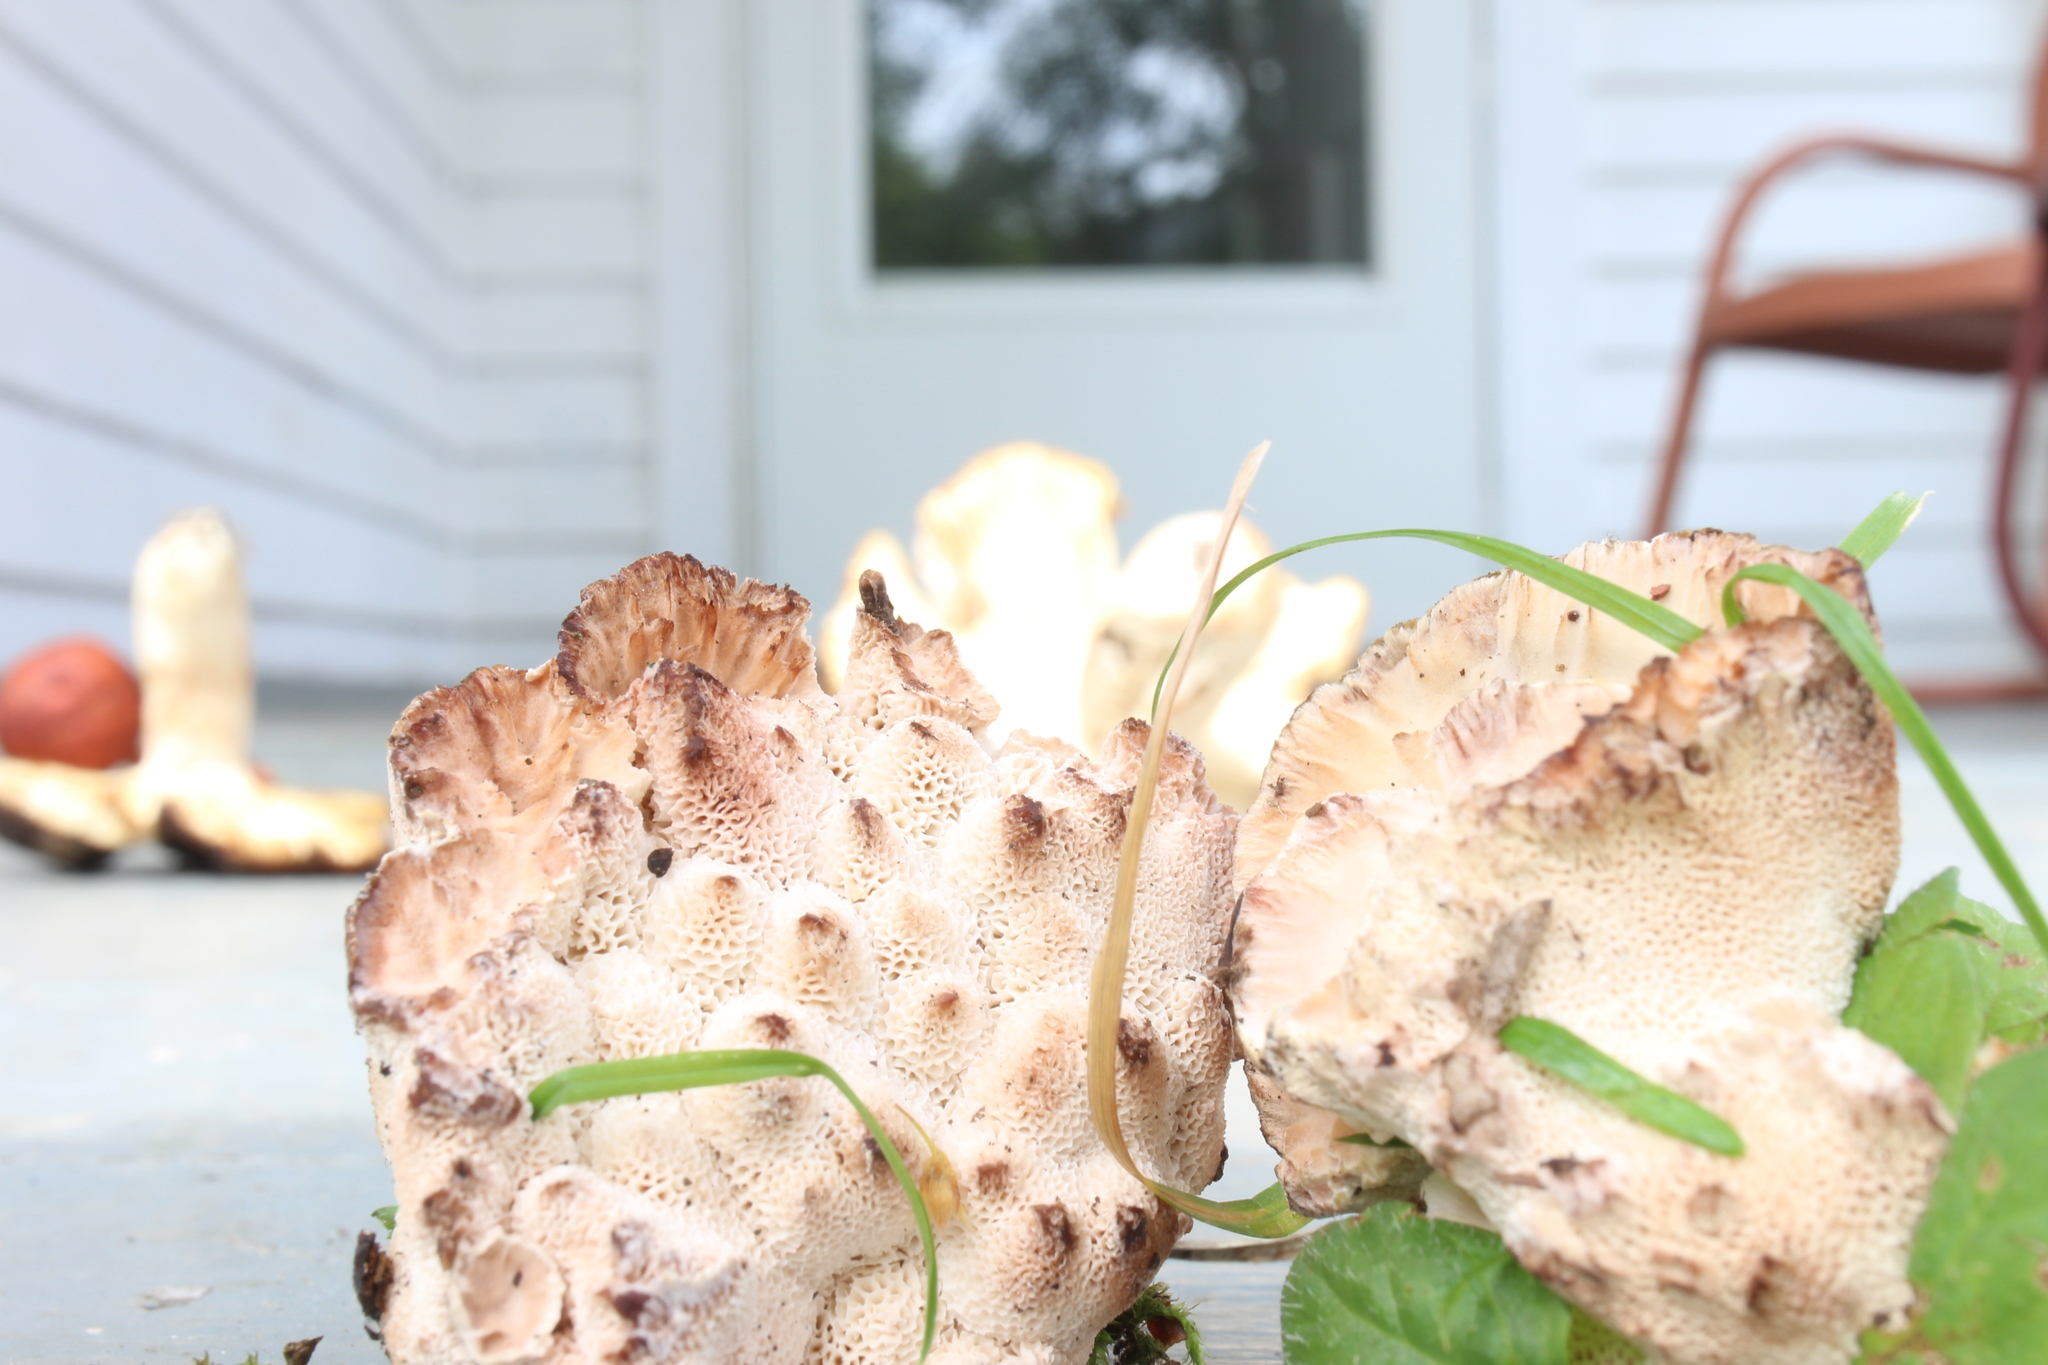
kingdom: Fungi
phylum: Basidiomycota
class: Agaricomycetes
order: Polyporales
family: Podoscyphaceae
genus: Abortiporus
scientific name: Abortiporus biennis
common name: Blushing rosette
